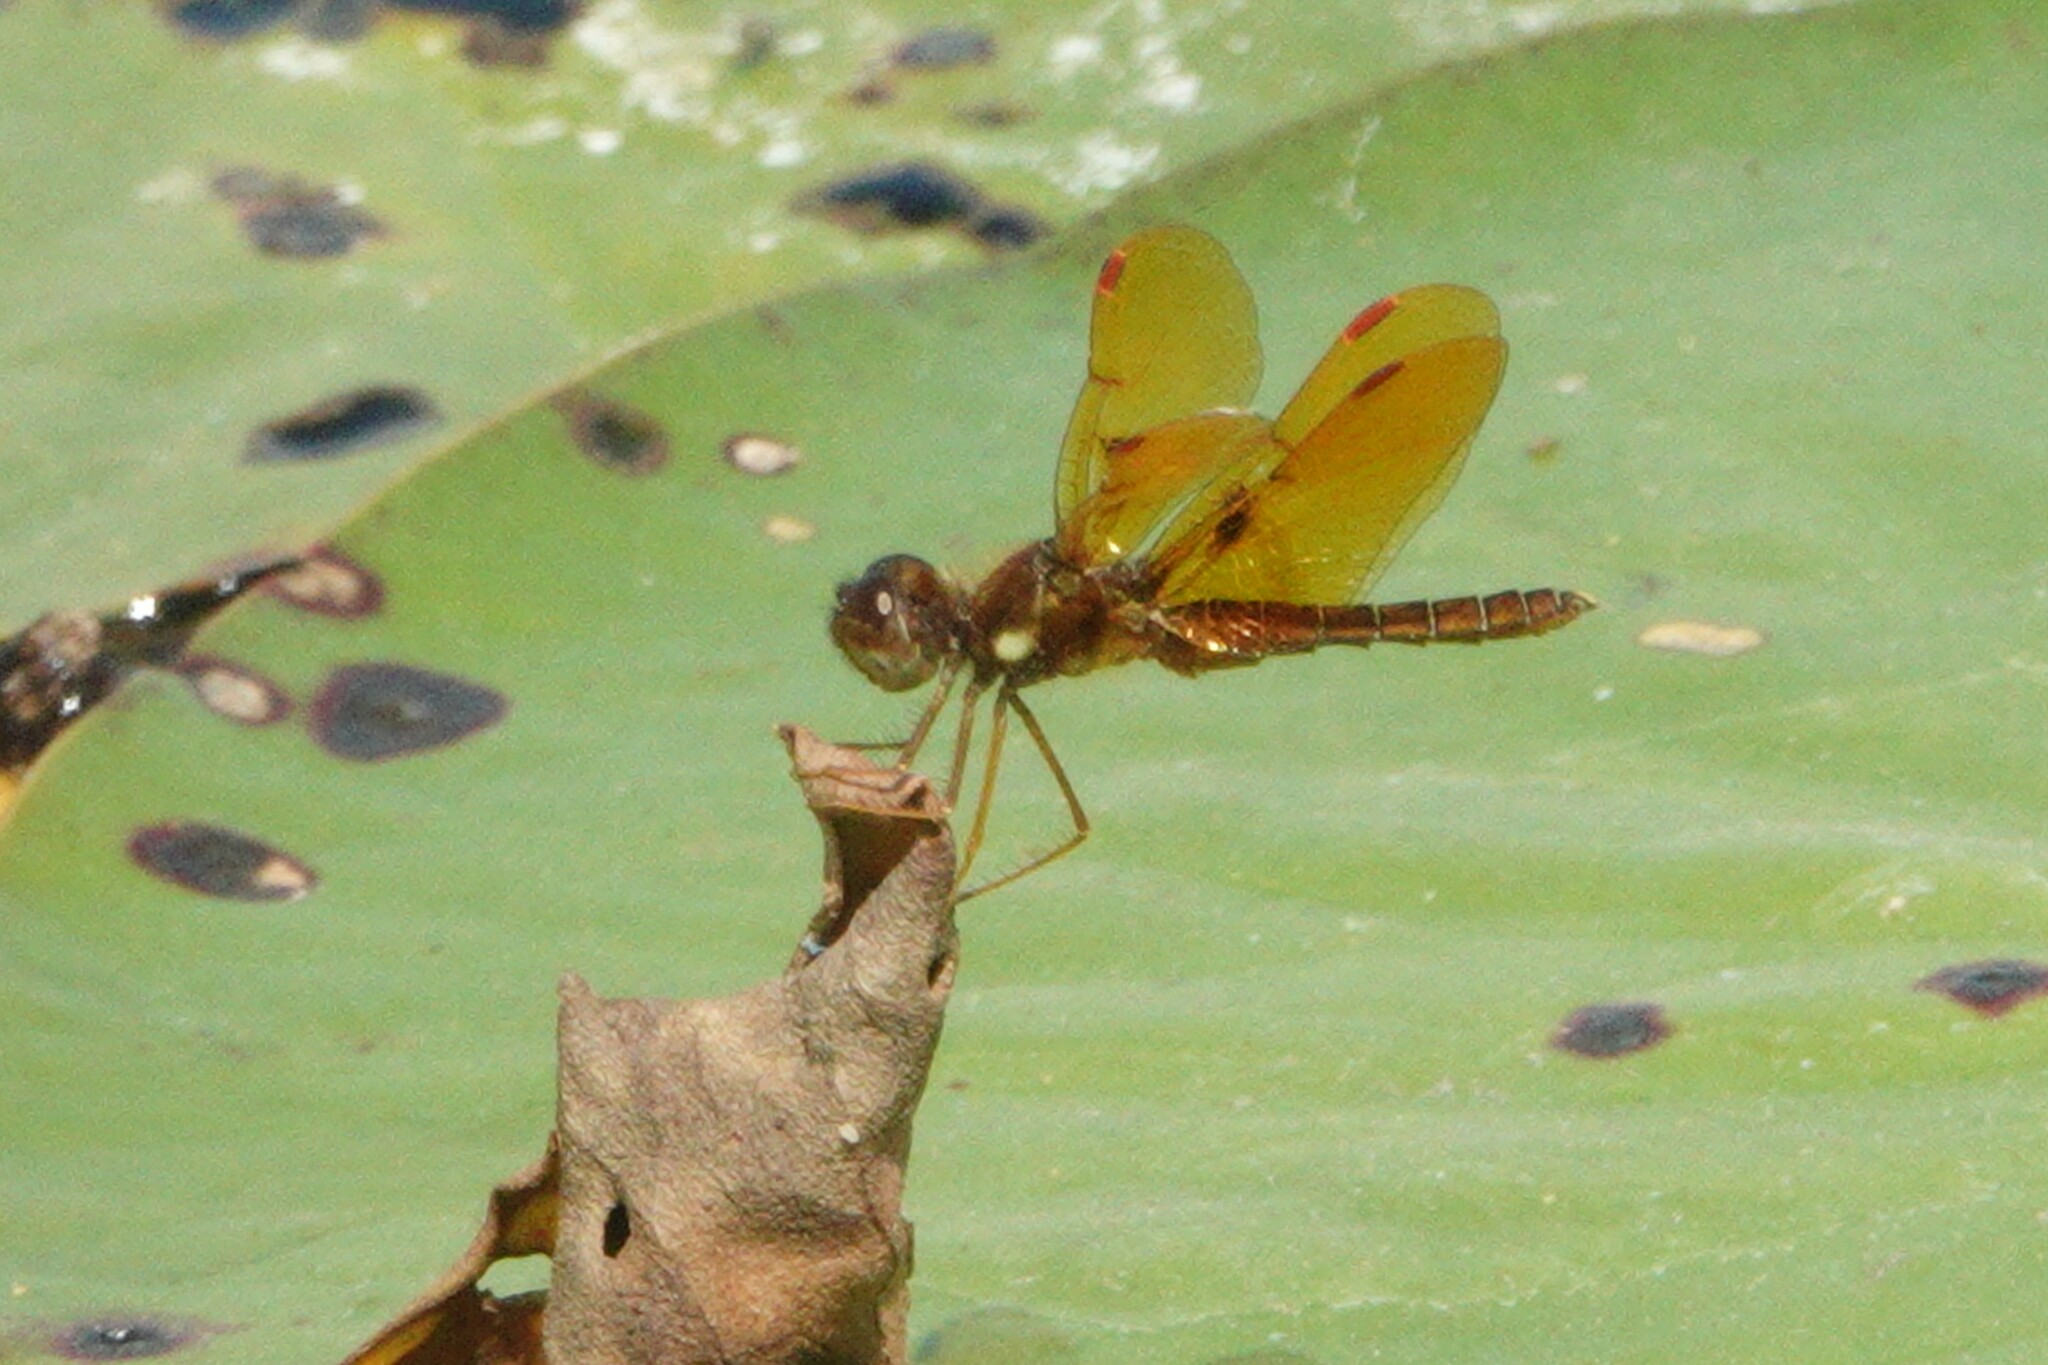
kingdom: Animalia
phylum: Arthropoda
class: Insecta
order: Odonata
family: Libellulidae
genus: Perithemis
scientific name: Perithemis tenera
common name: Eastern amberwing
